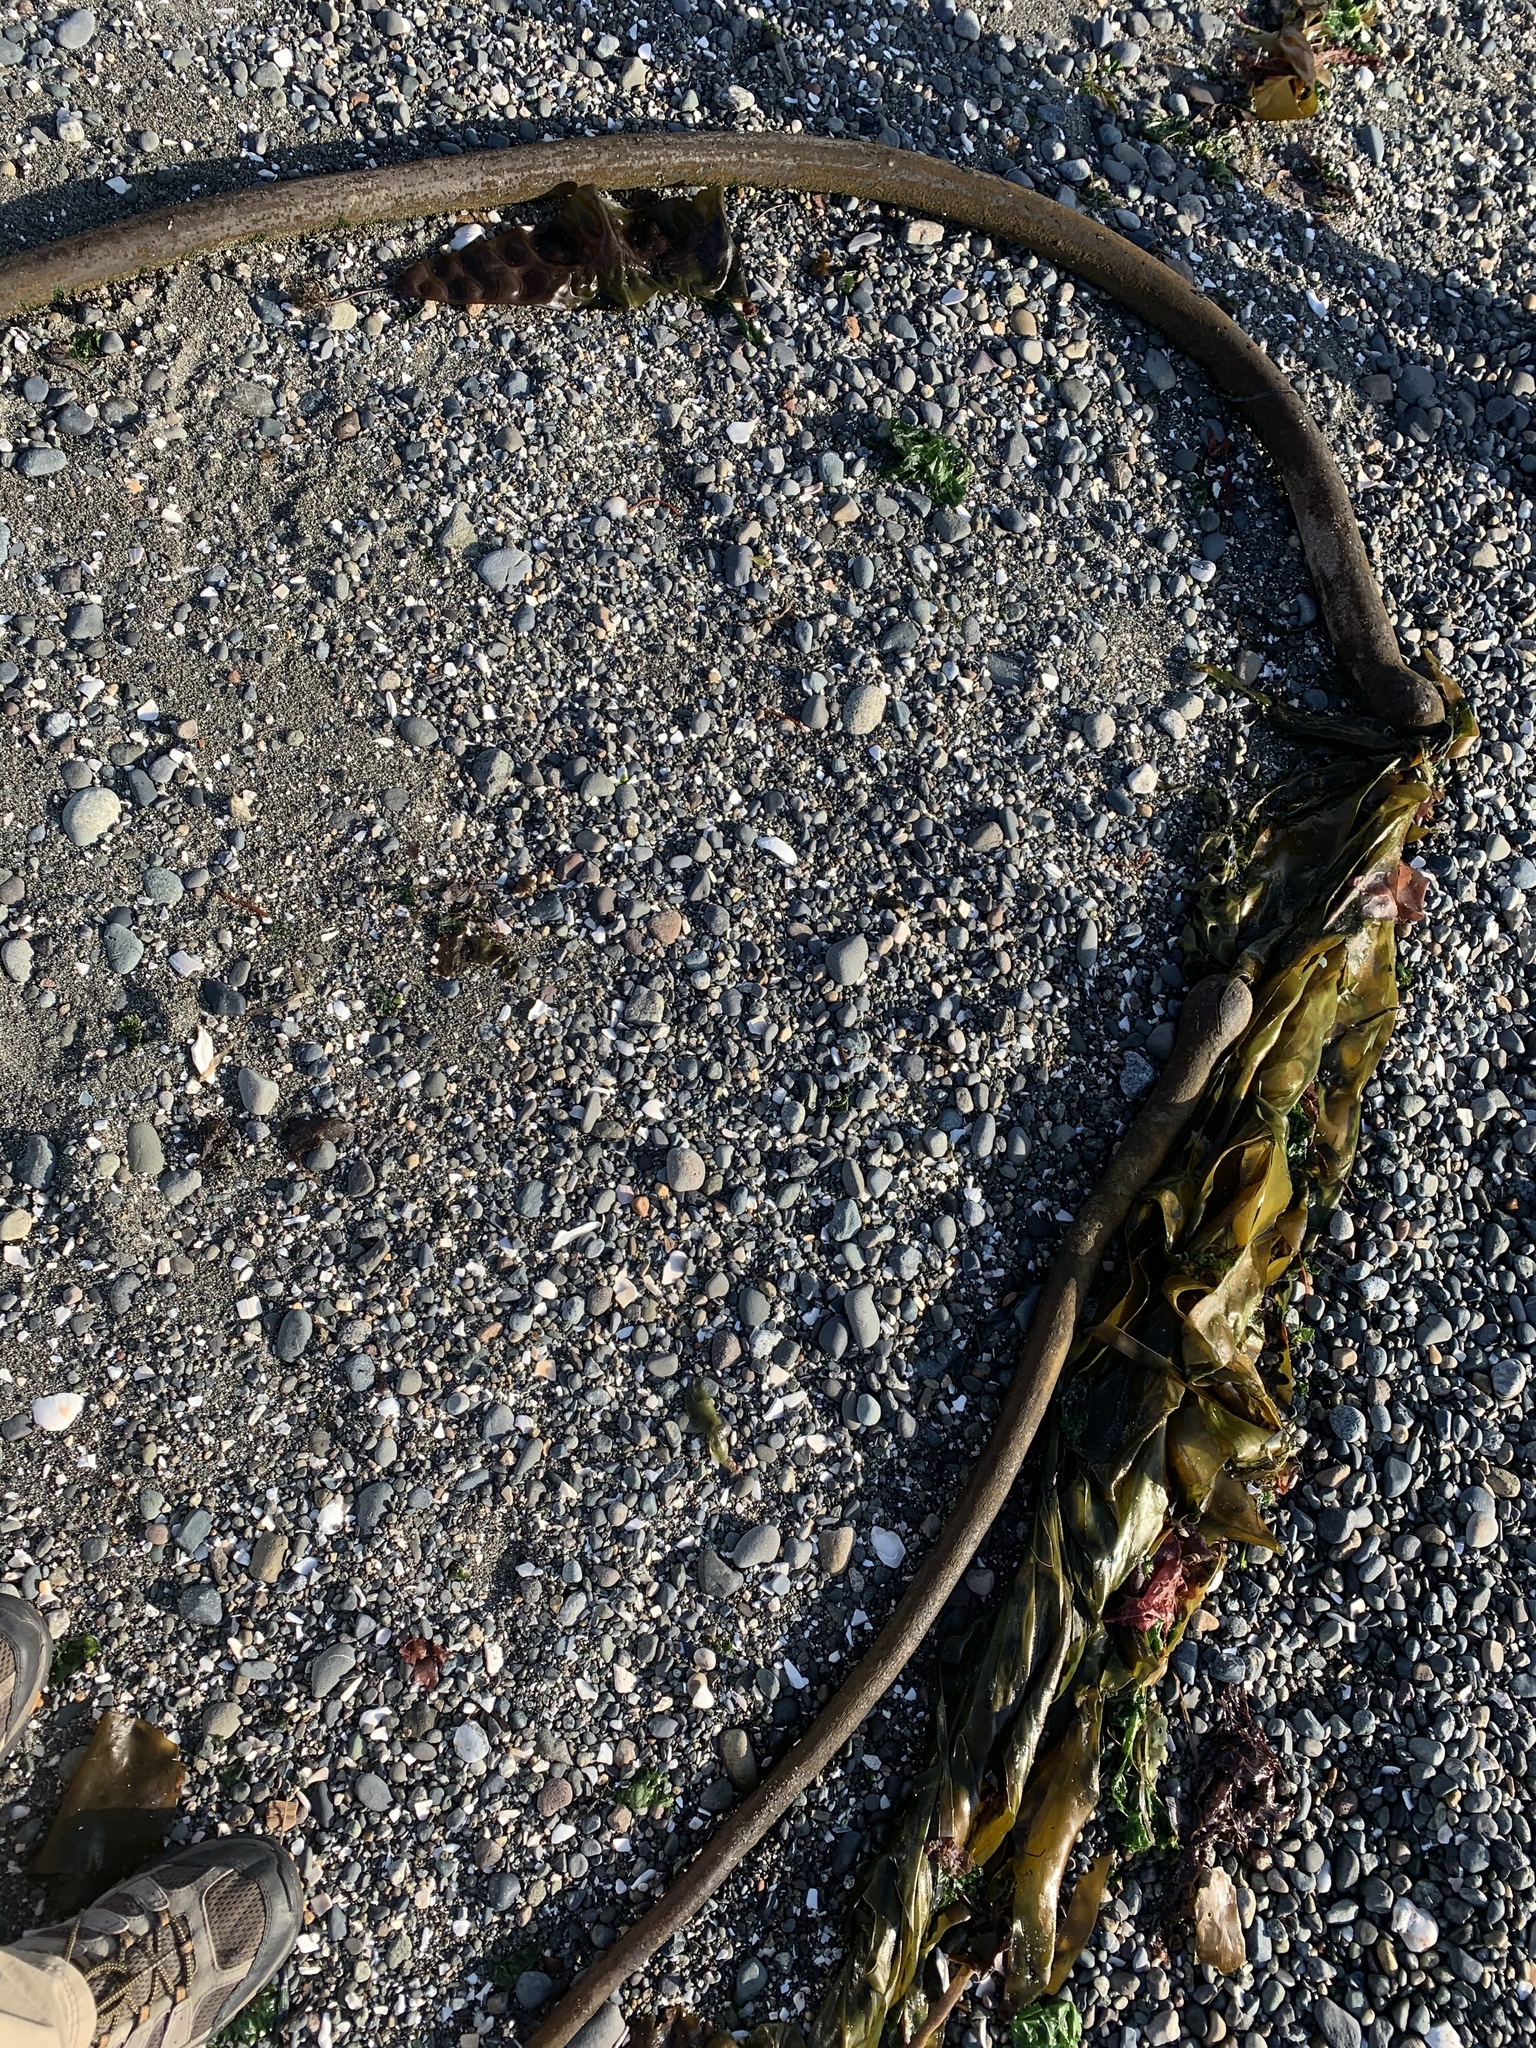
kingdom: Chromista
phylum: Ochrophyta
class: Phaeophyceae
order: Laminariales
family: Laminariaceae
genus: Nereocystis
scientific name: Nereocystis luetkeana
